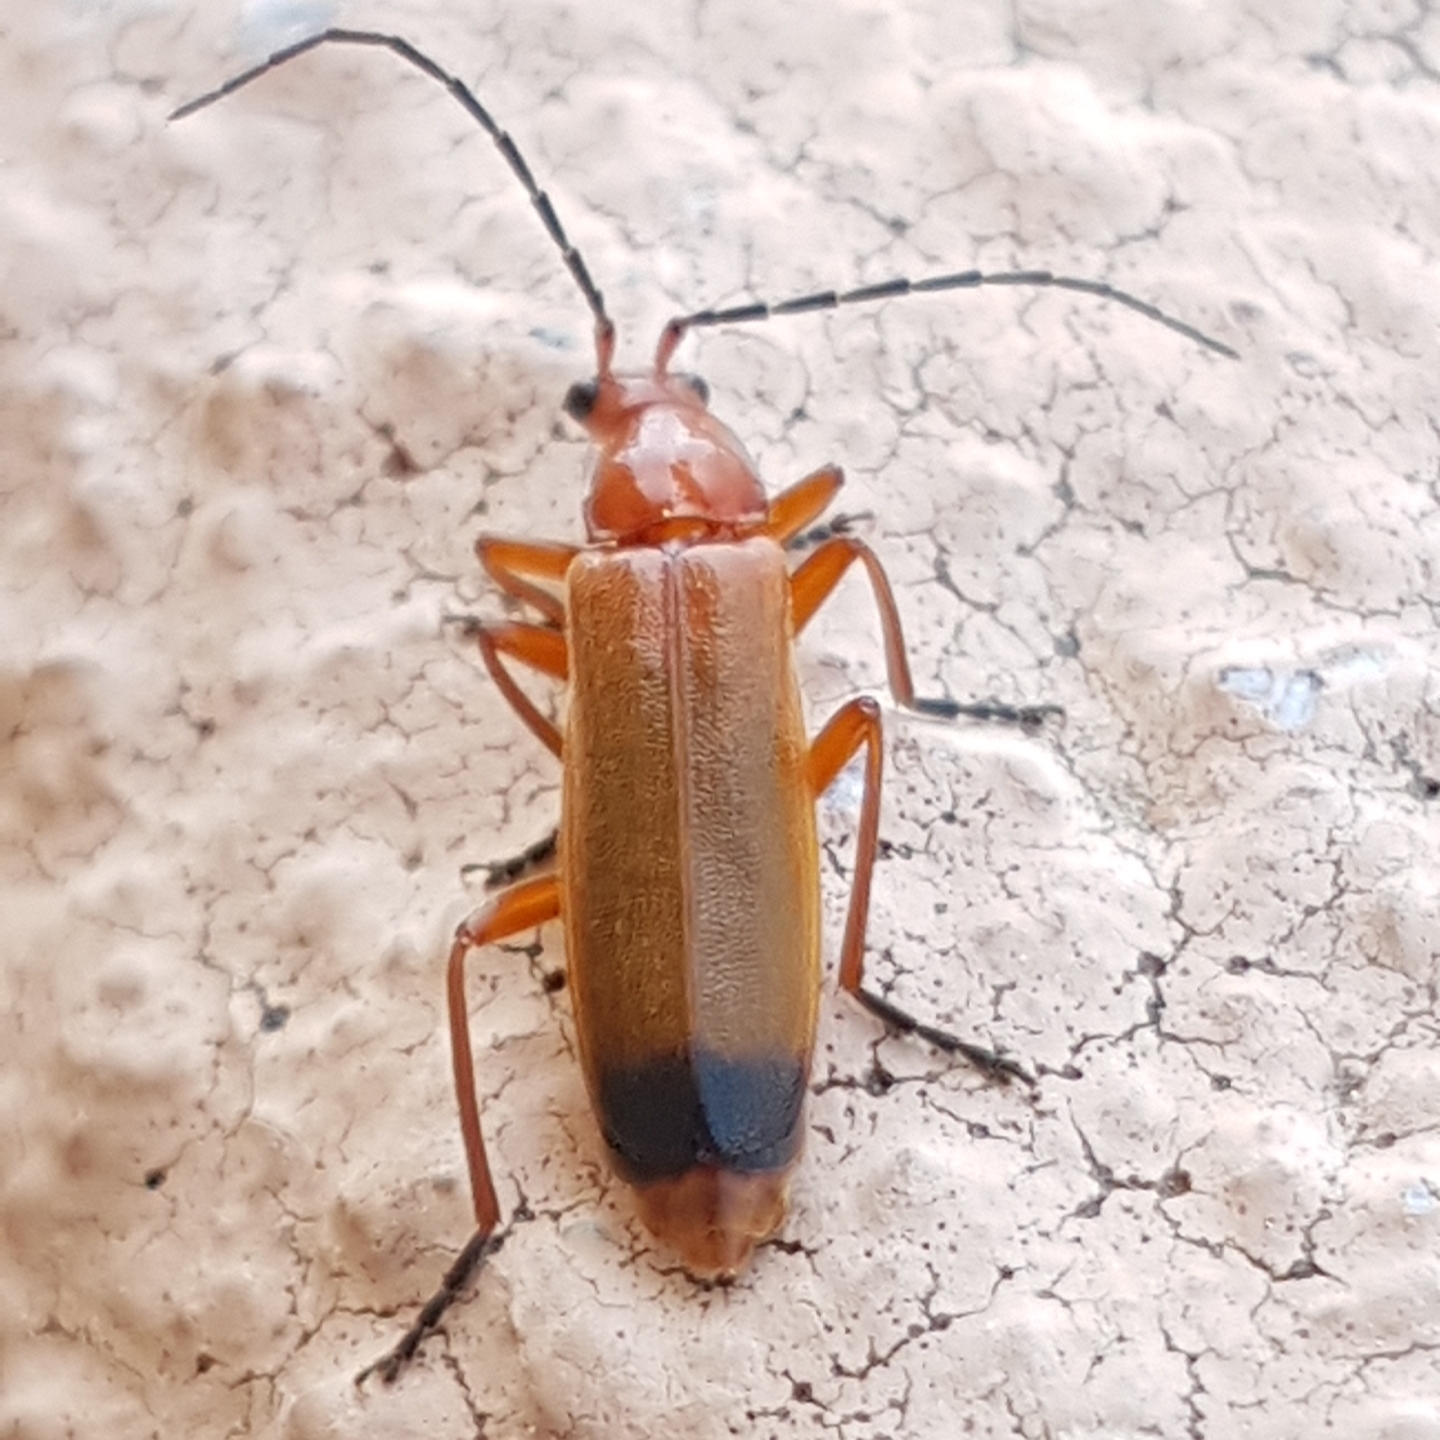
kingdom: Animalia
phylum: Arthropoda
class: Insecta
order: Coleoptera
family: Cantharidae
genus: Rhagonycha
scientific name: Rhagonycha fulva
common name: Common red soldier beetle
